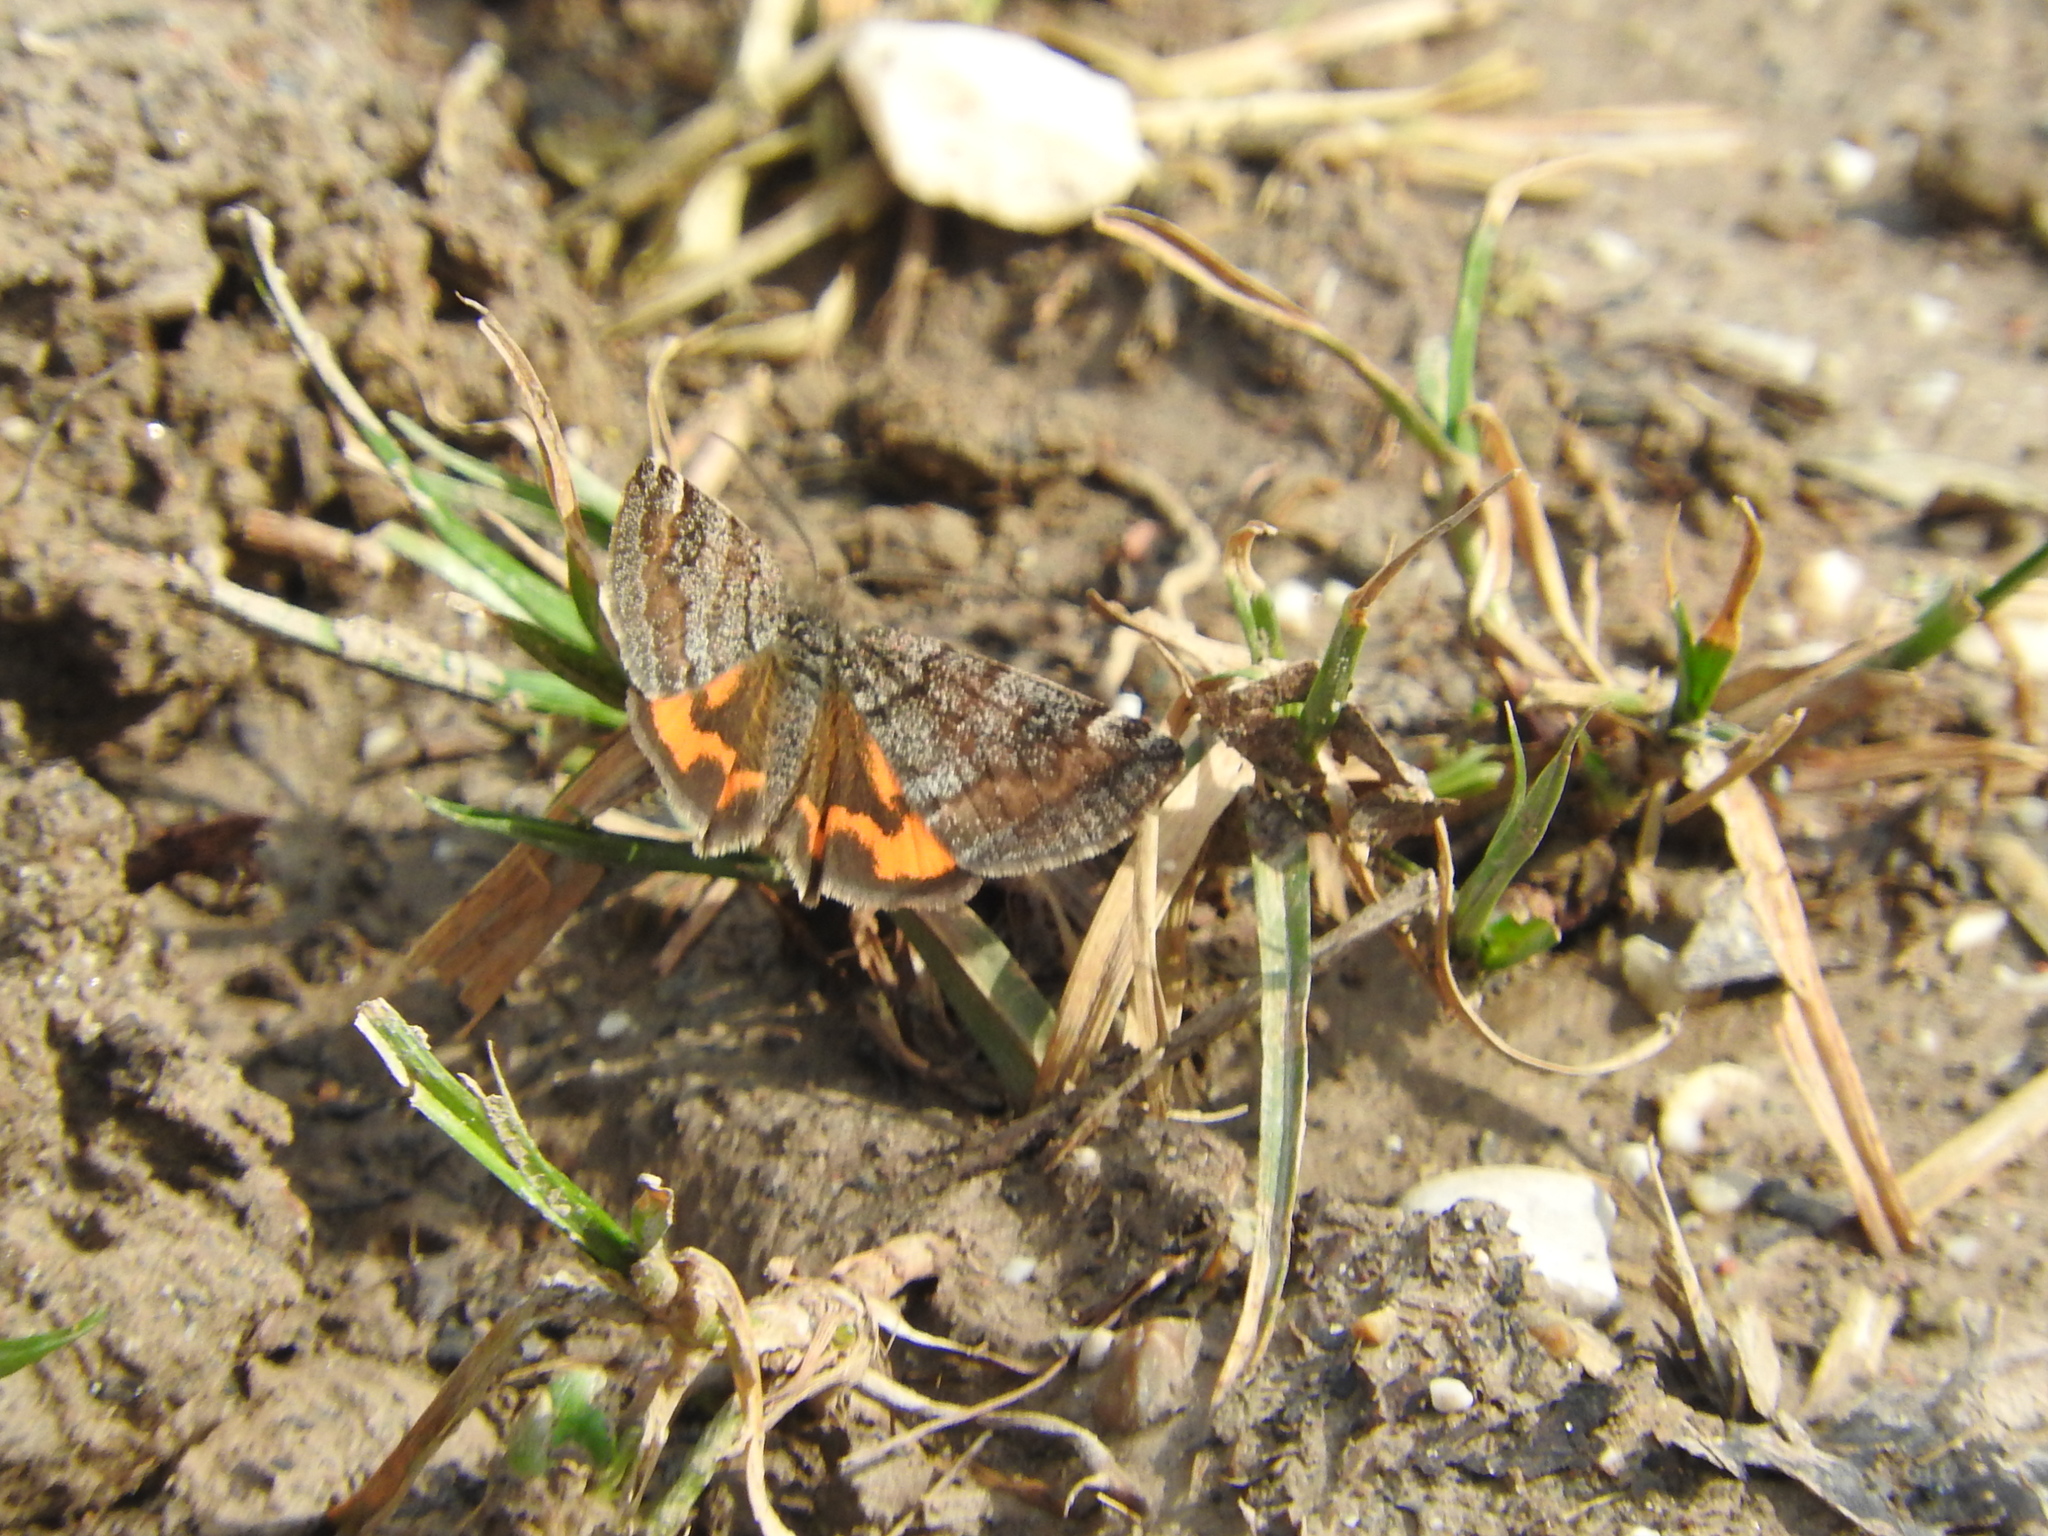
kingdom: Animalia
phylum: Arthropoda
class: Insecta
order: Lepidoptera
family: Geometridae
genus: Archiearis
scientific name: Archiearis notha
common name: Light orange underwing
